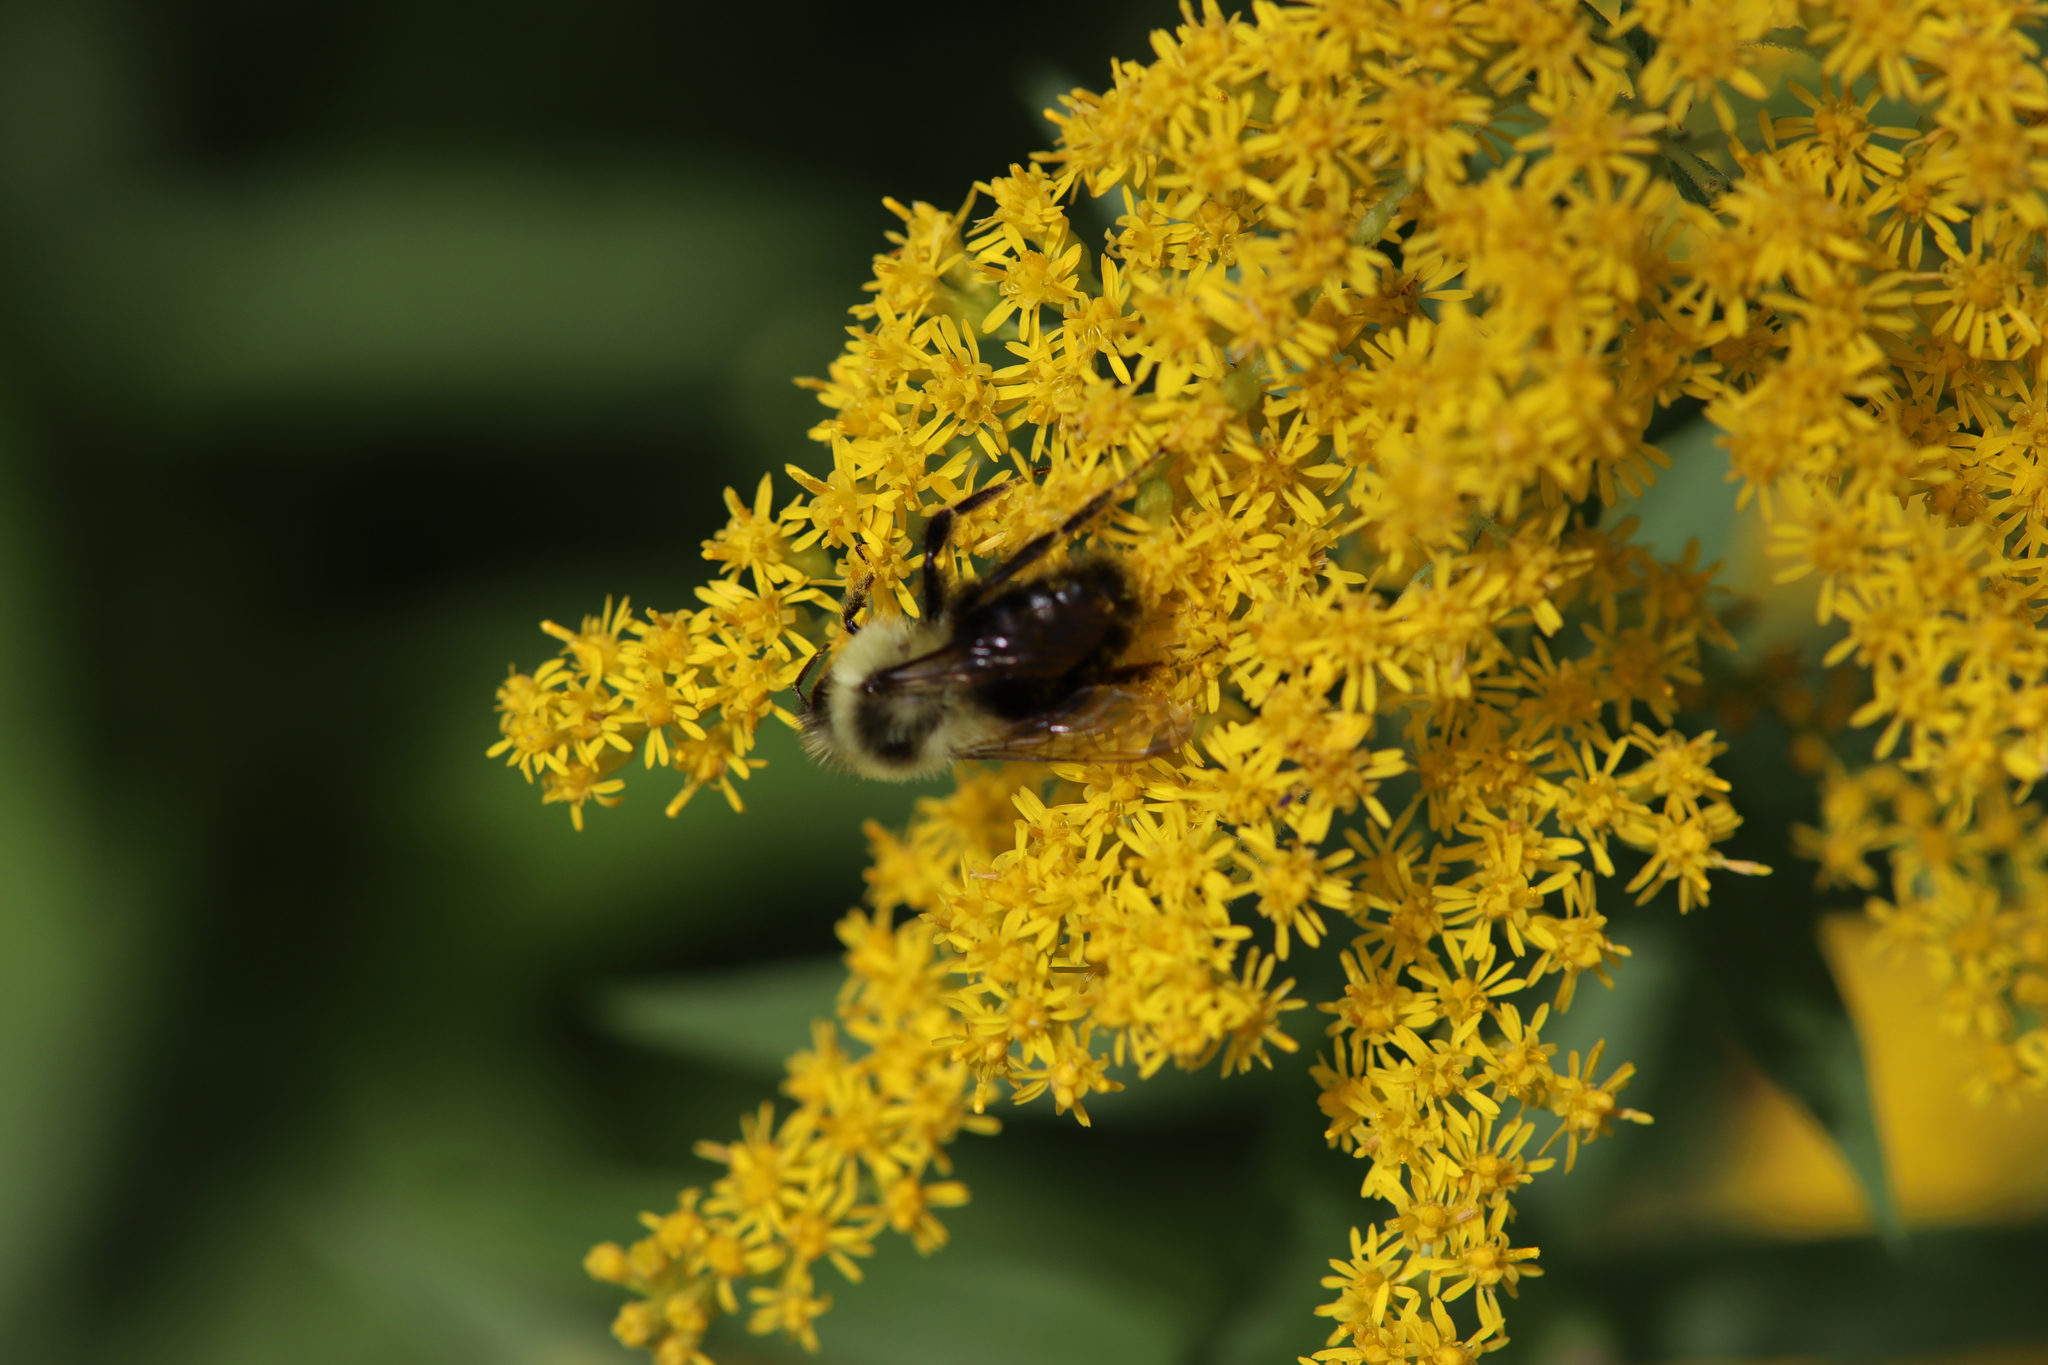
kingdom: Animalia
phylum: Arthropoda
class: Insecta
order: Hymenoptera
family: Apidae
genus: Bombus
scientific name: Bombus impatiens
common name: Common eastern bumble bee
